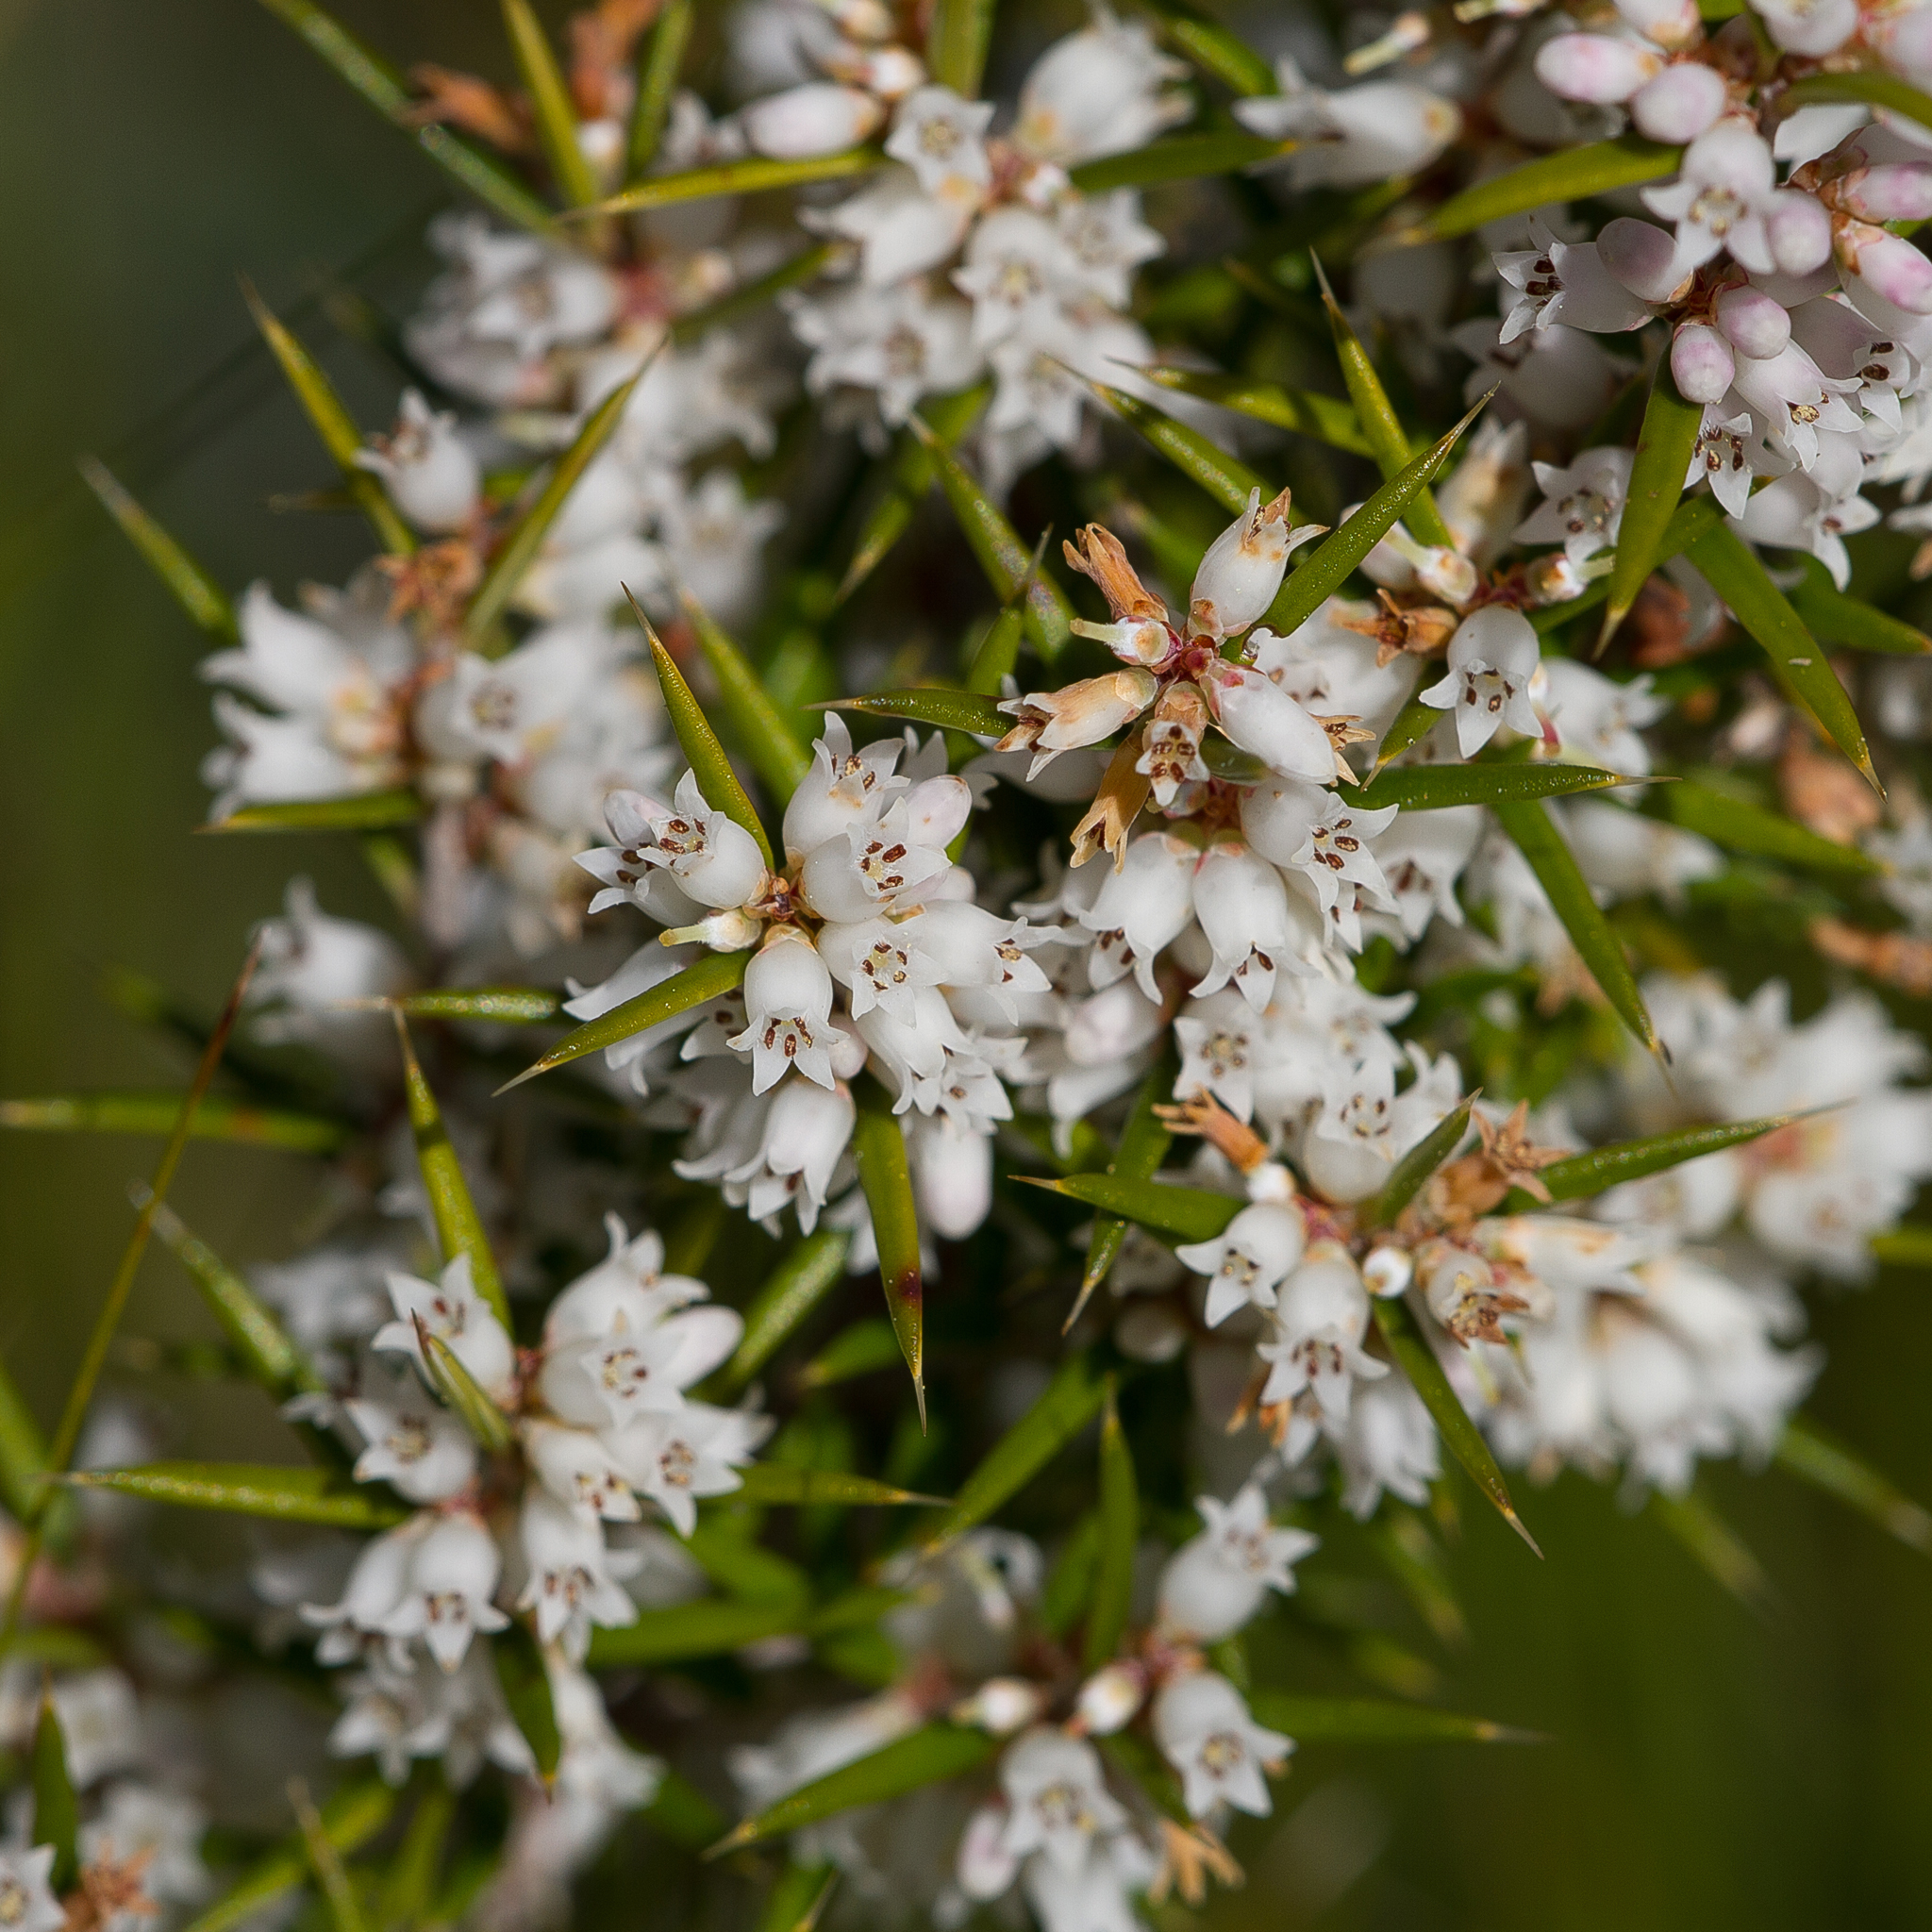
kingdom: Plantae
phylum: Tracheophyta
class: Magnoliopsida
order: Ericales
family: Ericaceae
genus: Lissanthe
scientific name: Lissanthe strigosa
